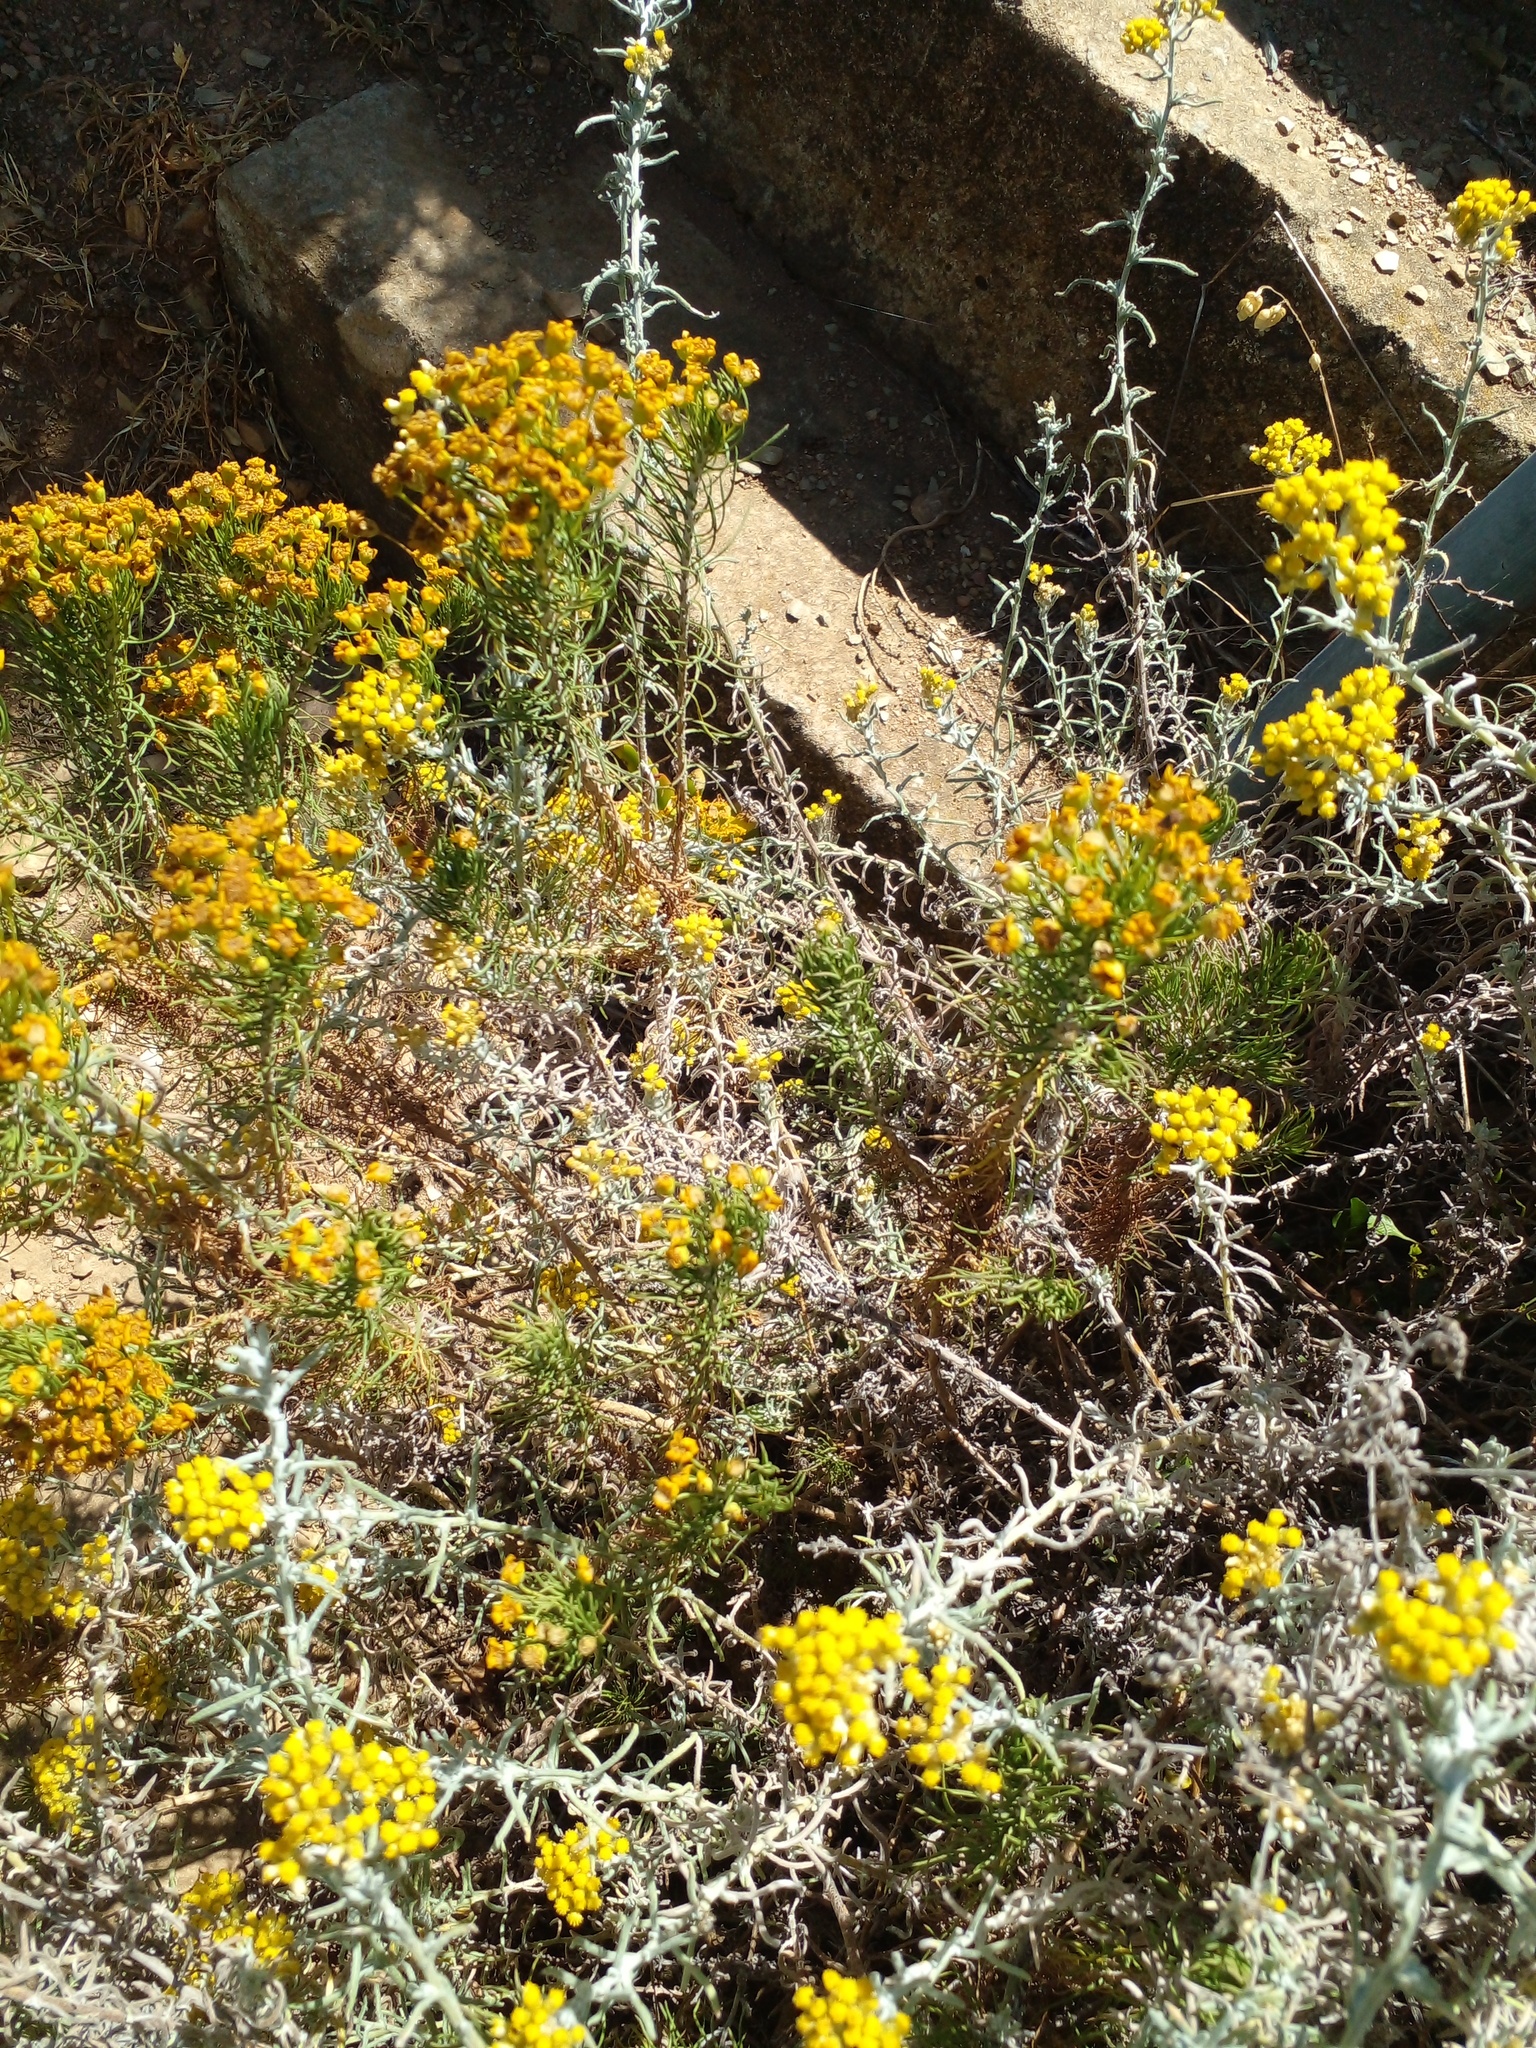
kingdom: Plantae
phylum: Tracheophyta
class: Magnoliopsida
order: Asterales
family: Asteraceae
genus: Helichrysum
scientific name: Helichrysum revolutum
